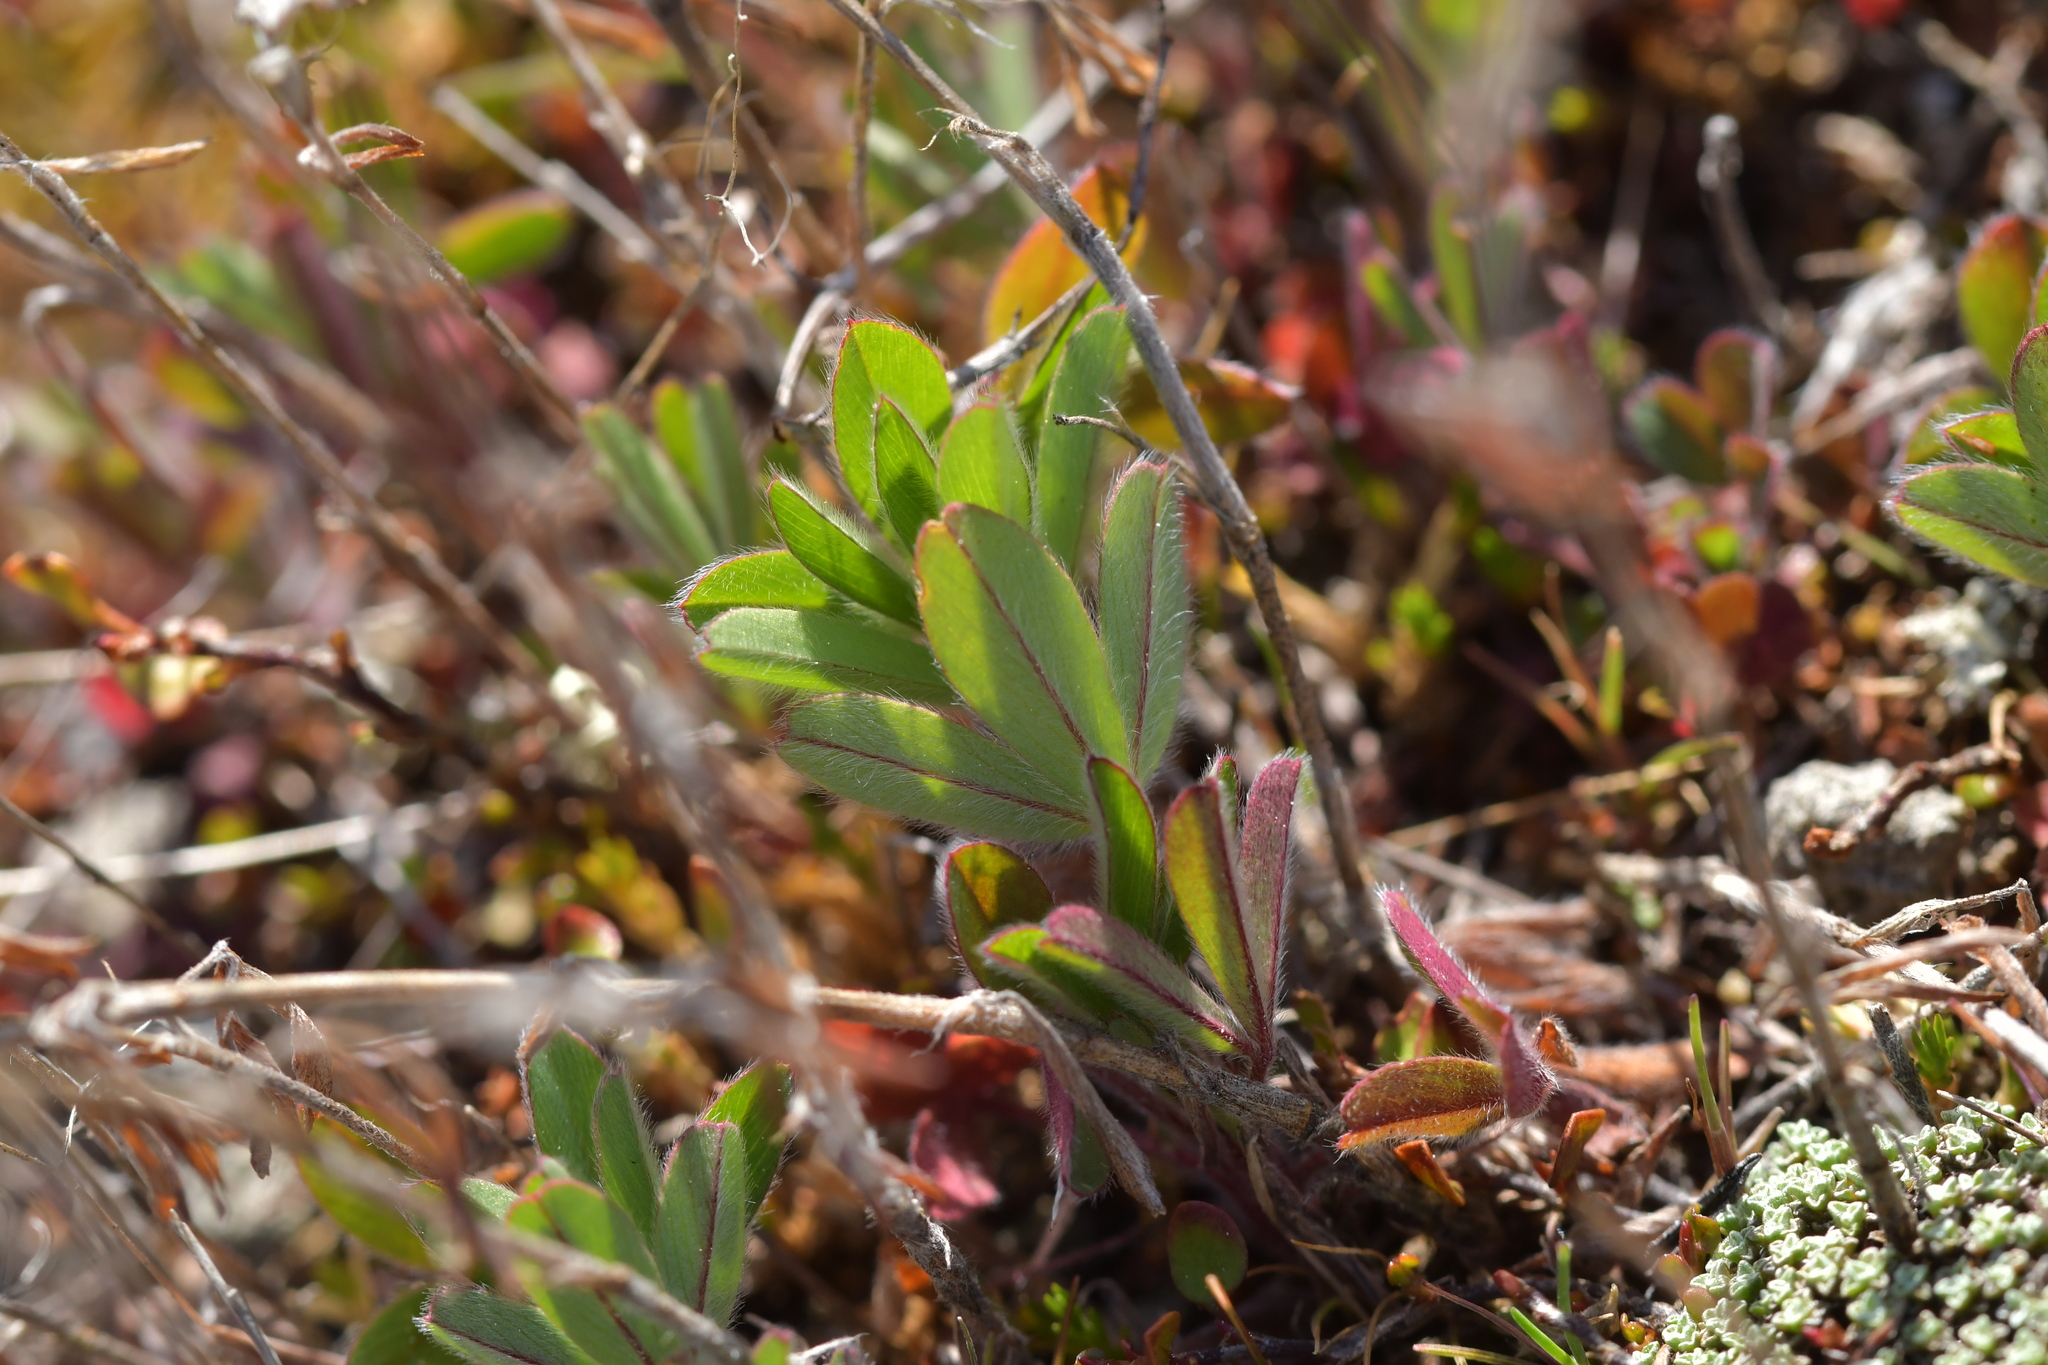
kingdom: Plantae
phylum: Tracheophyta
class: Magnoliopsida
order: Fabales
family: Fabaceae
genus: Trifolium
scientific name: Trifolium arvense
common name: Hare's-foot clover
